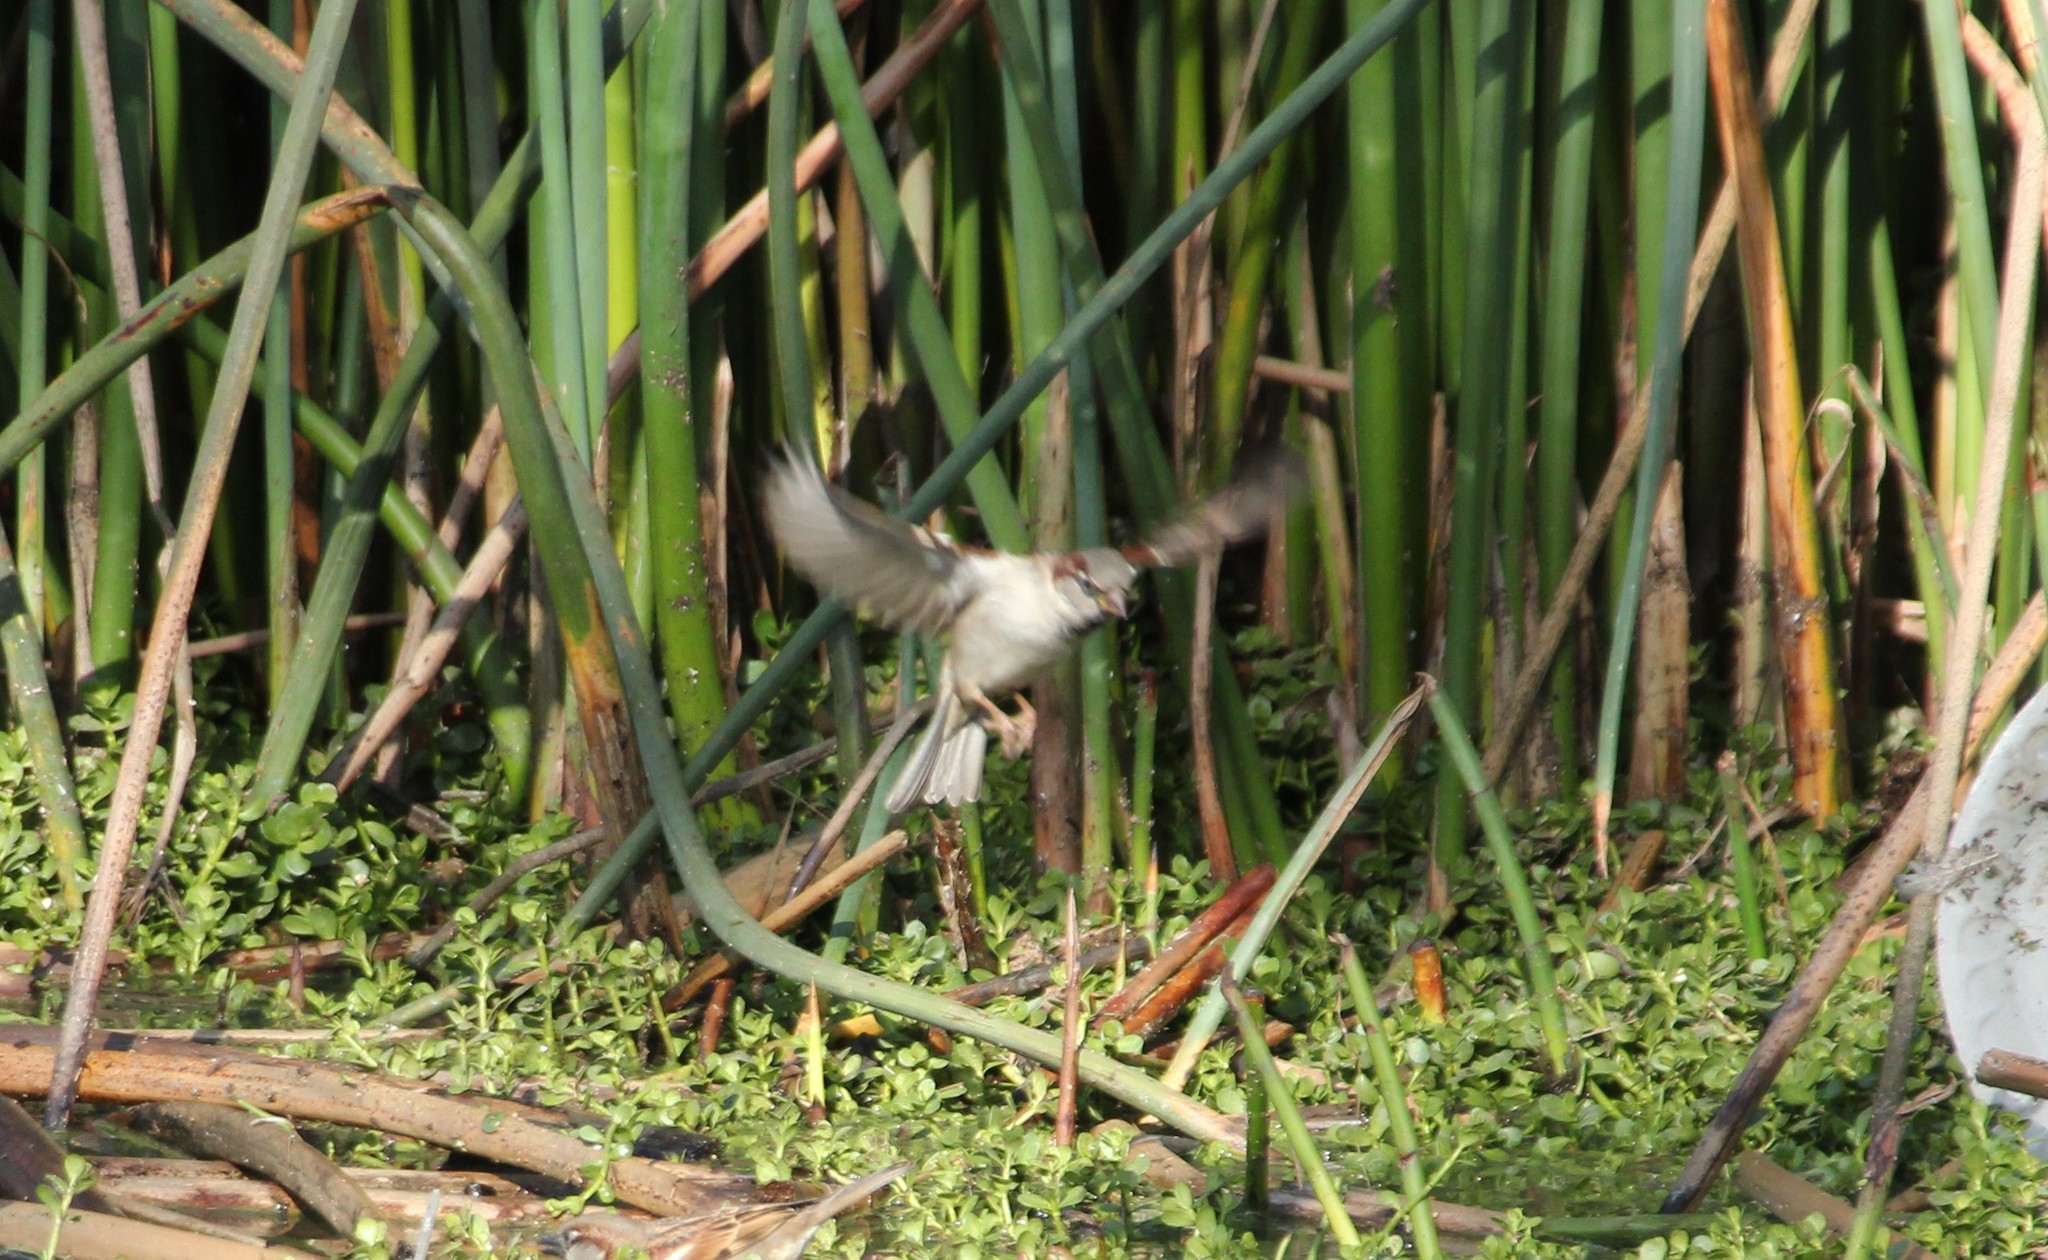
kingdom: Animalia
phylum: Chordata
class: Aves
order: Passeriformes
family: Passeridae
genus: Passer
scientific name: Passer domesticus
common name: House sparrow
